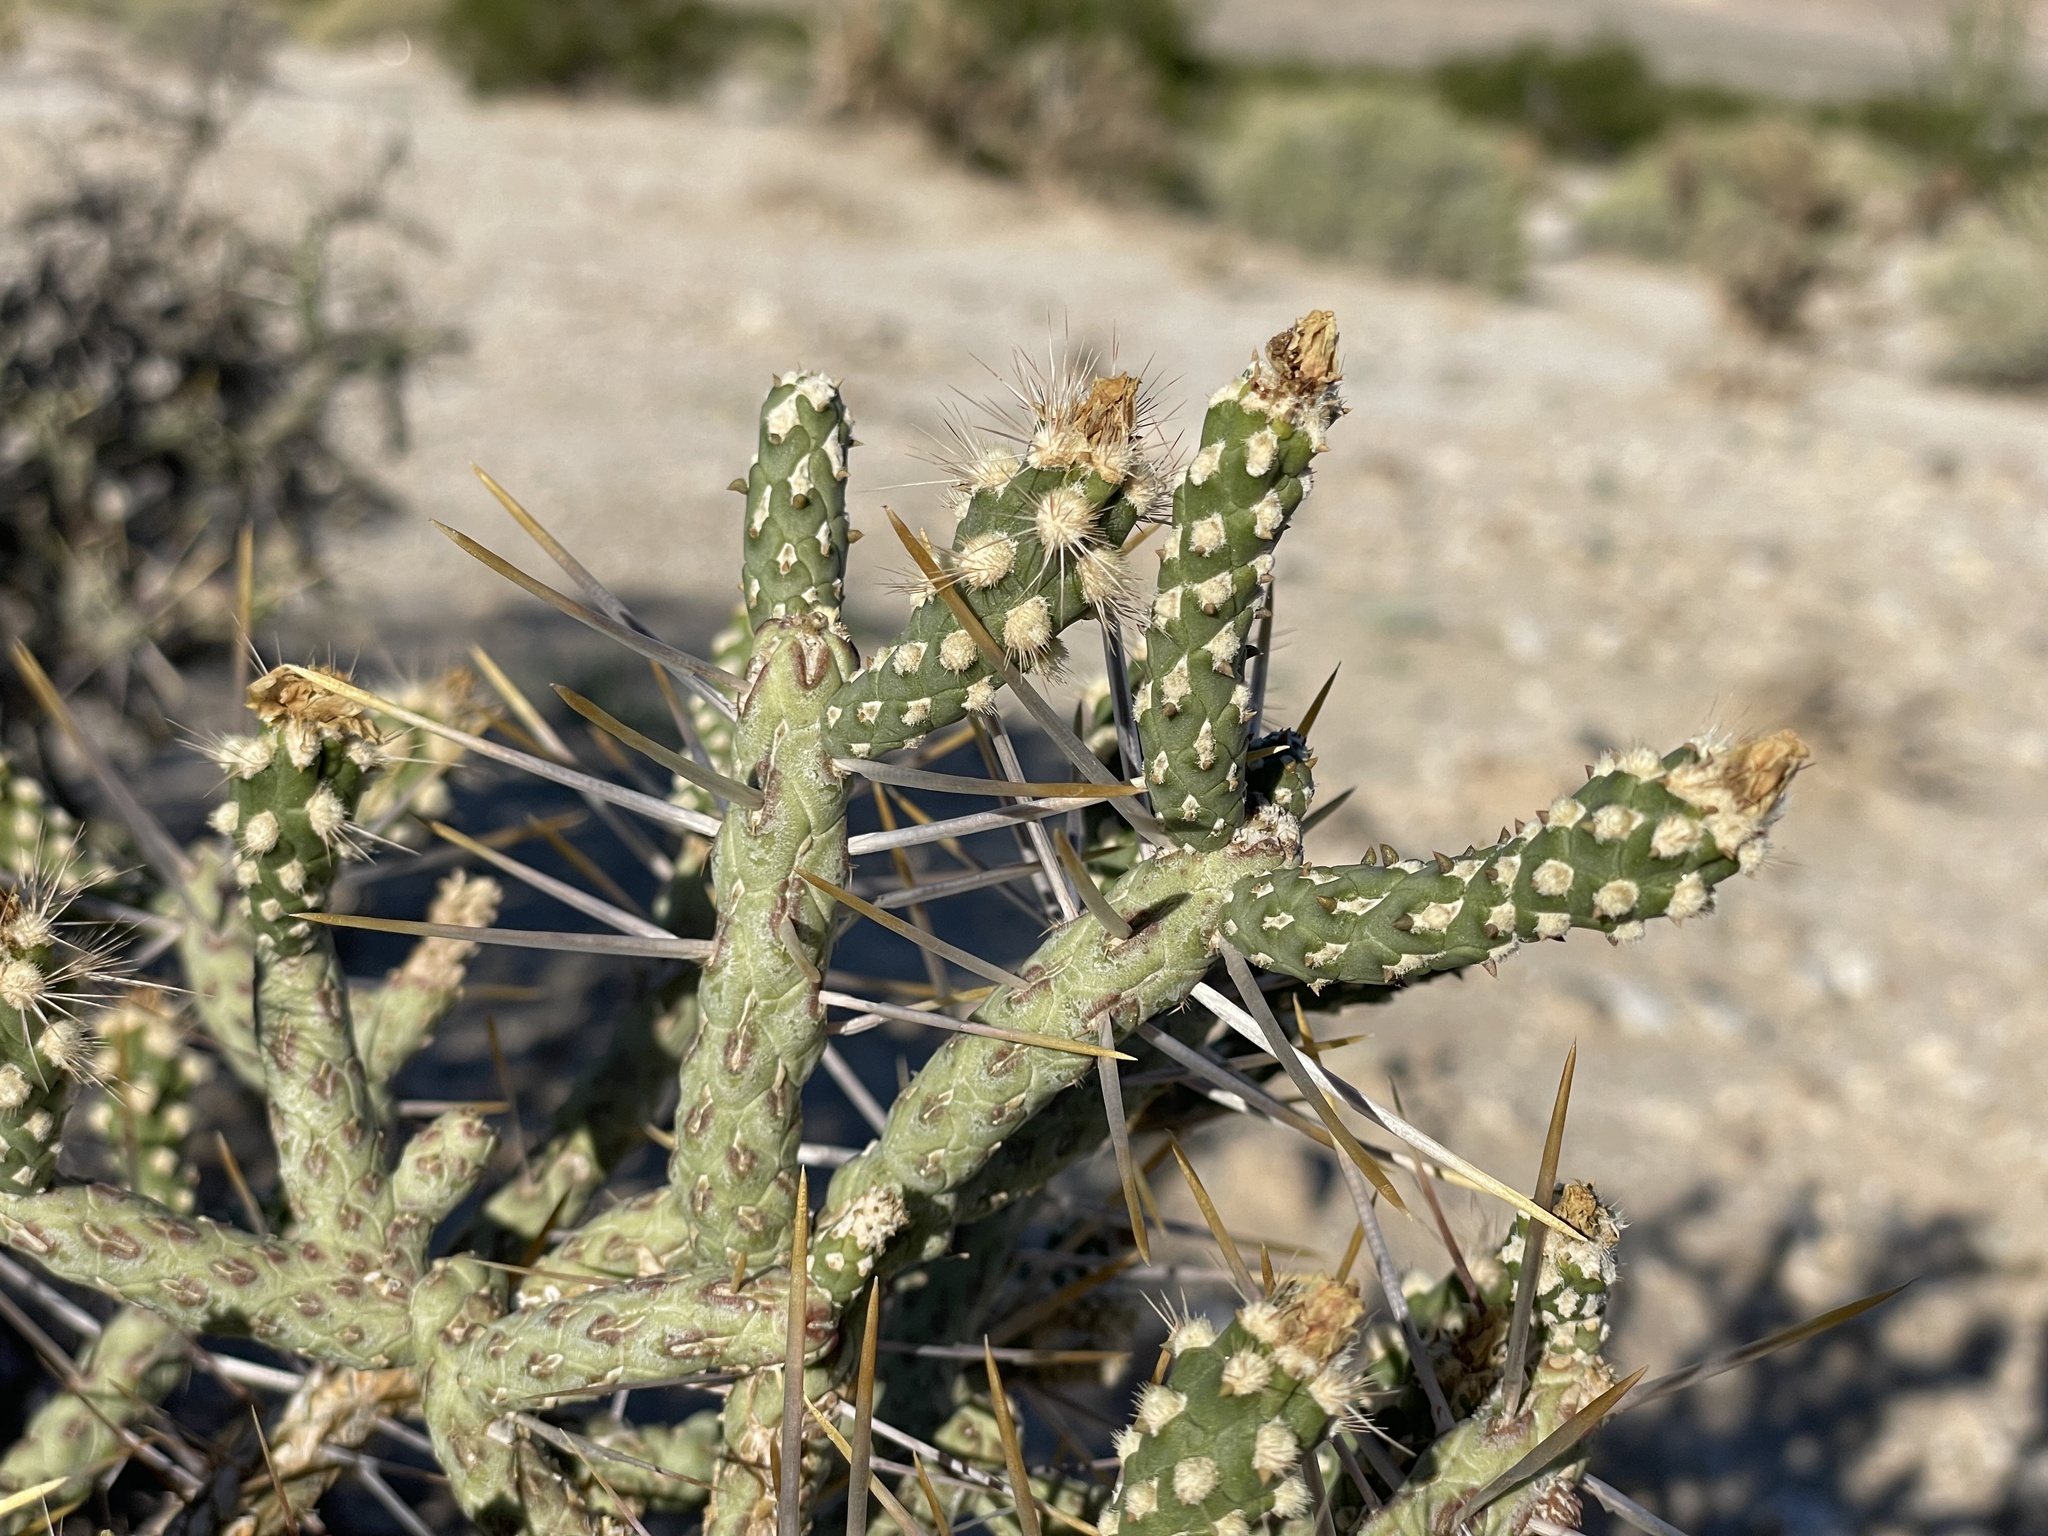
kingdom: Plantae
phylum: Tracheophyta
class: Magnoliopsida
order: Caryophyllales
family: Cactaceae
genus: Cylindropuntia
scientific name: Cylindropuntia ramosissima
